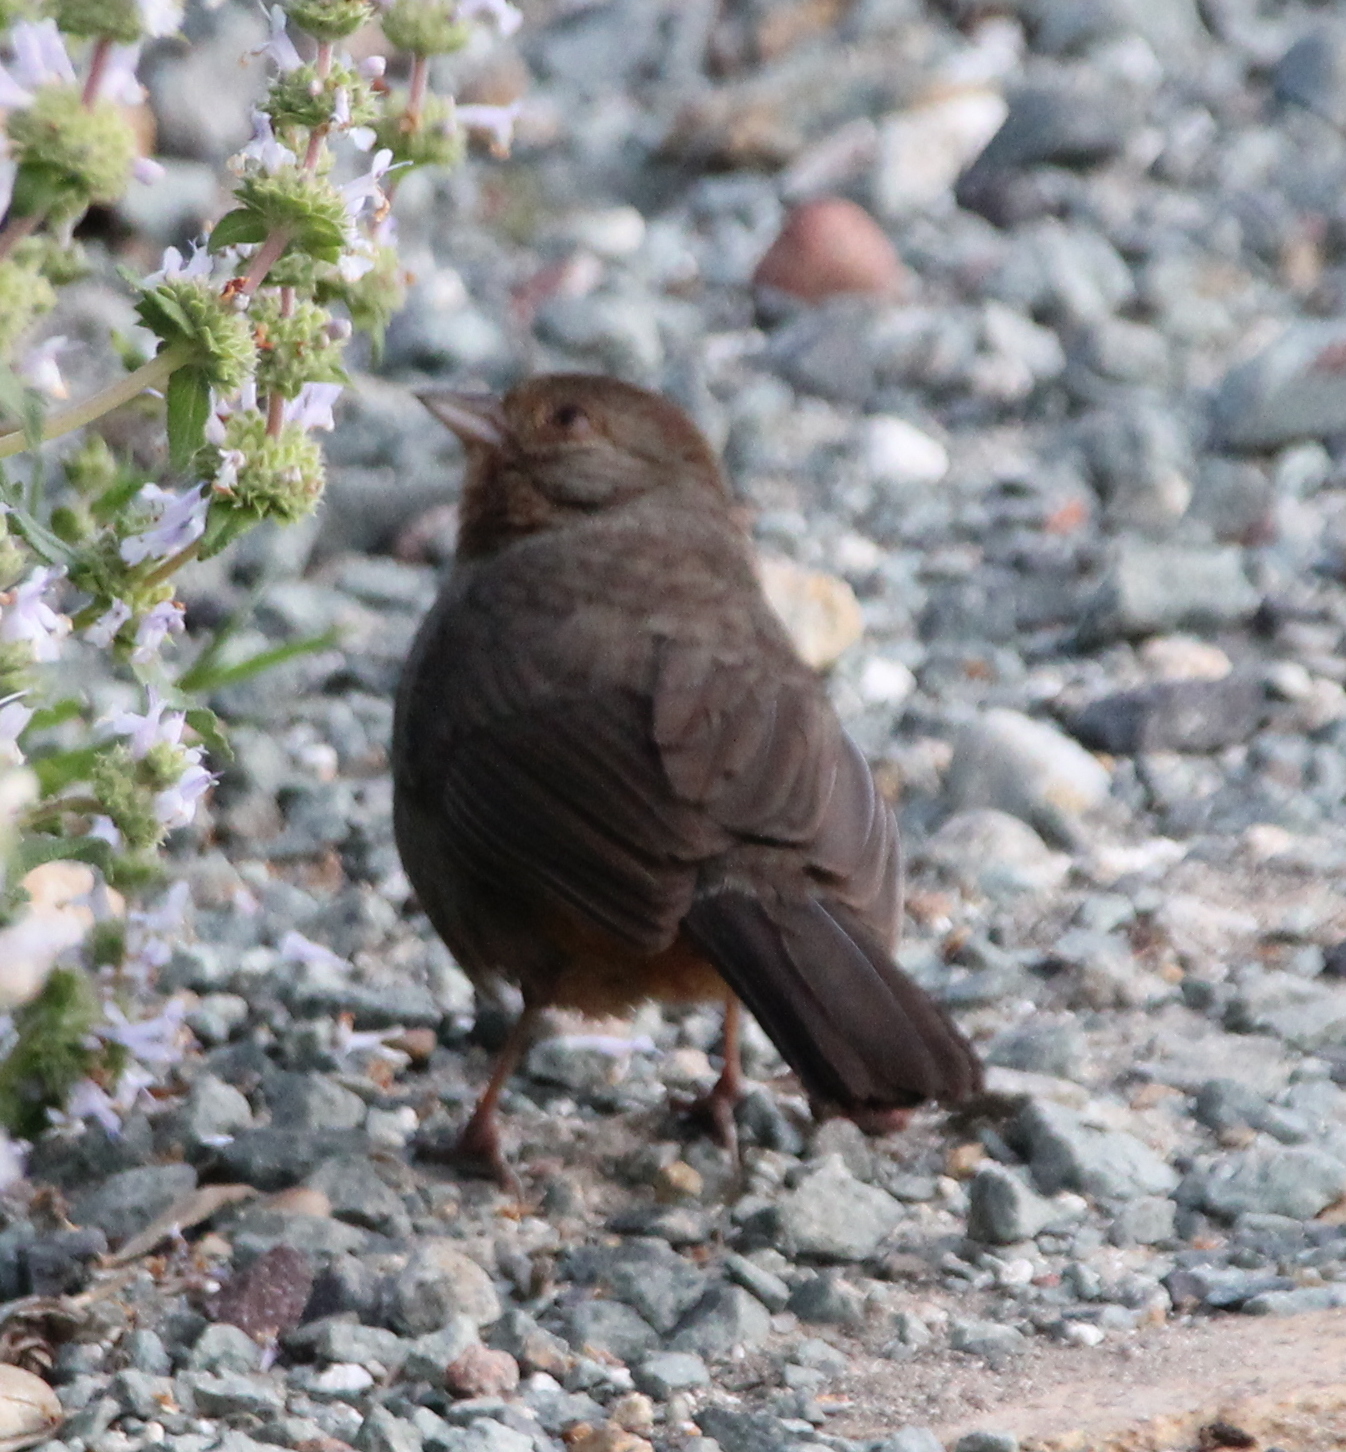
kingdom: Animalia
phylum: Chordata
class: Aves
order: Passeriformes
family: Passerellidae
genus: Melozone
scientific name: Melozone crissalis
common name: California towhee
